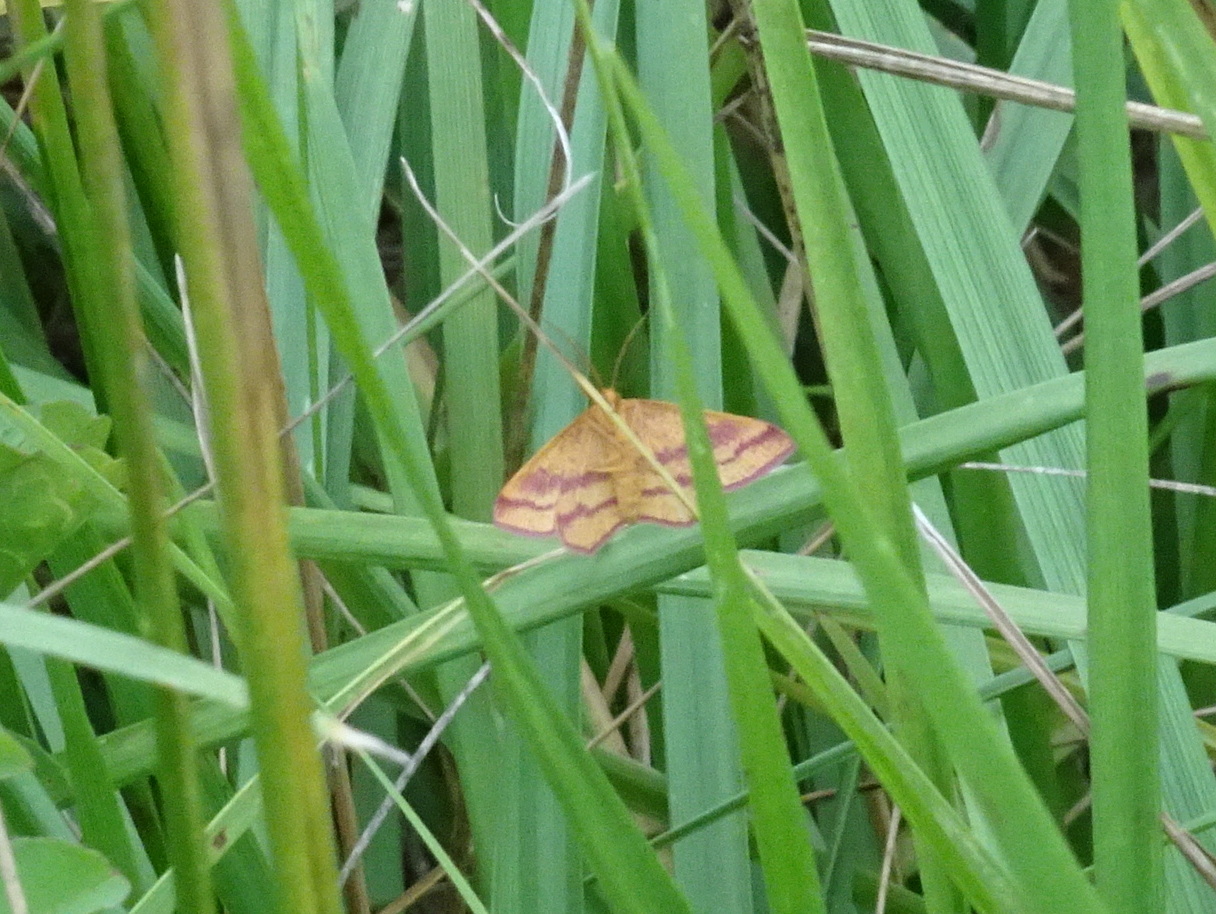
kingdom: Animalia
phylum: Arthropoda
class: Insecta
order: Lepidoptera
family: Geometridae
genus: Haematopis
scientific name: Haematopis grataria
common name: Chickweed geometer
